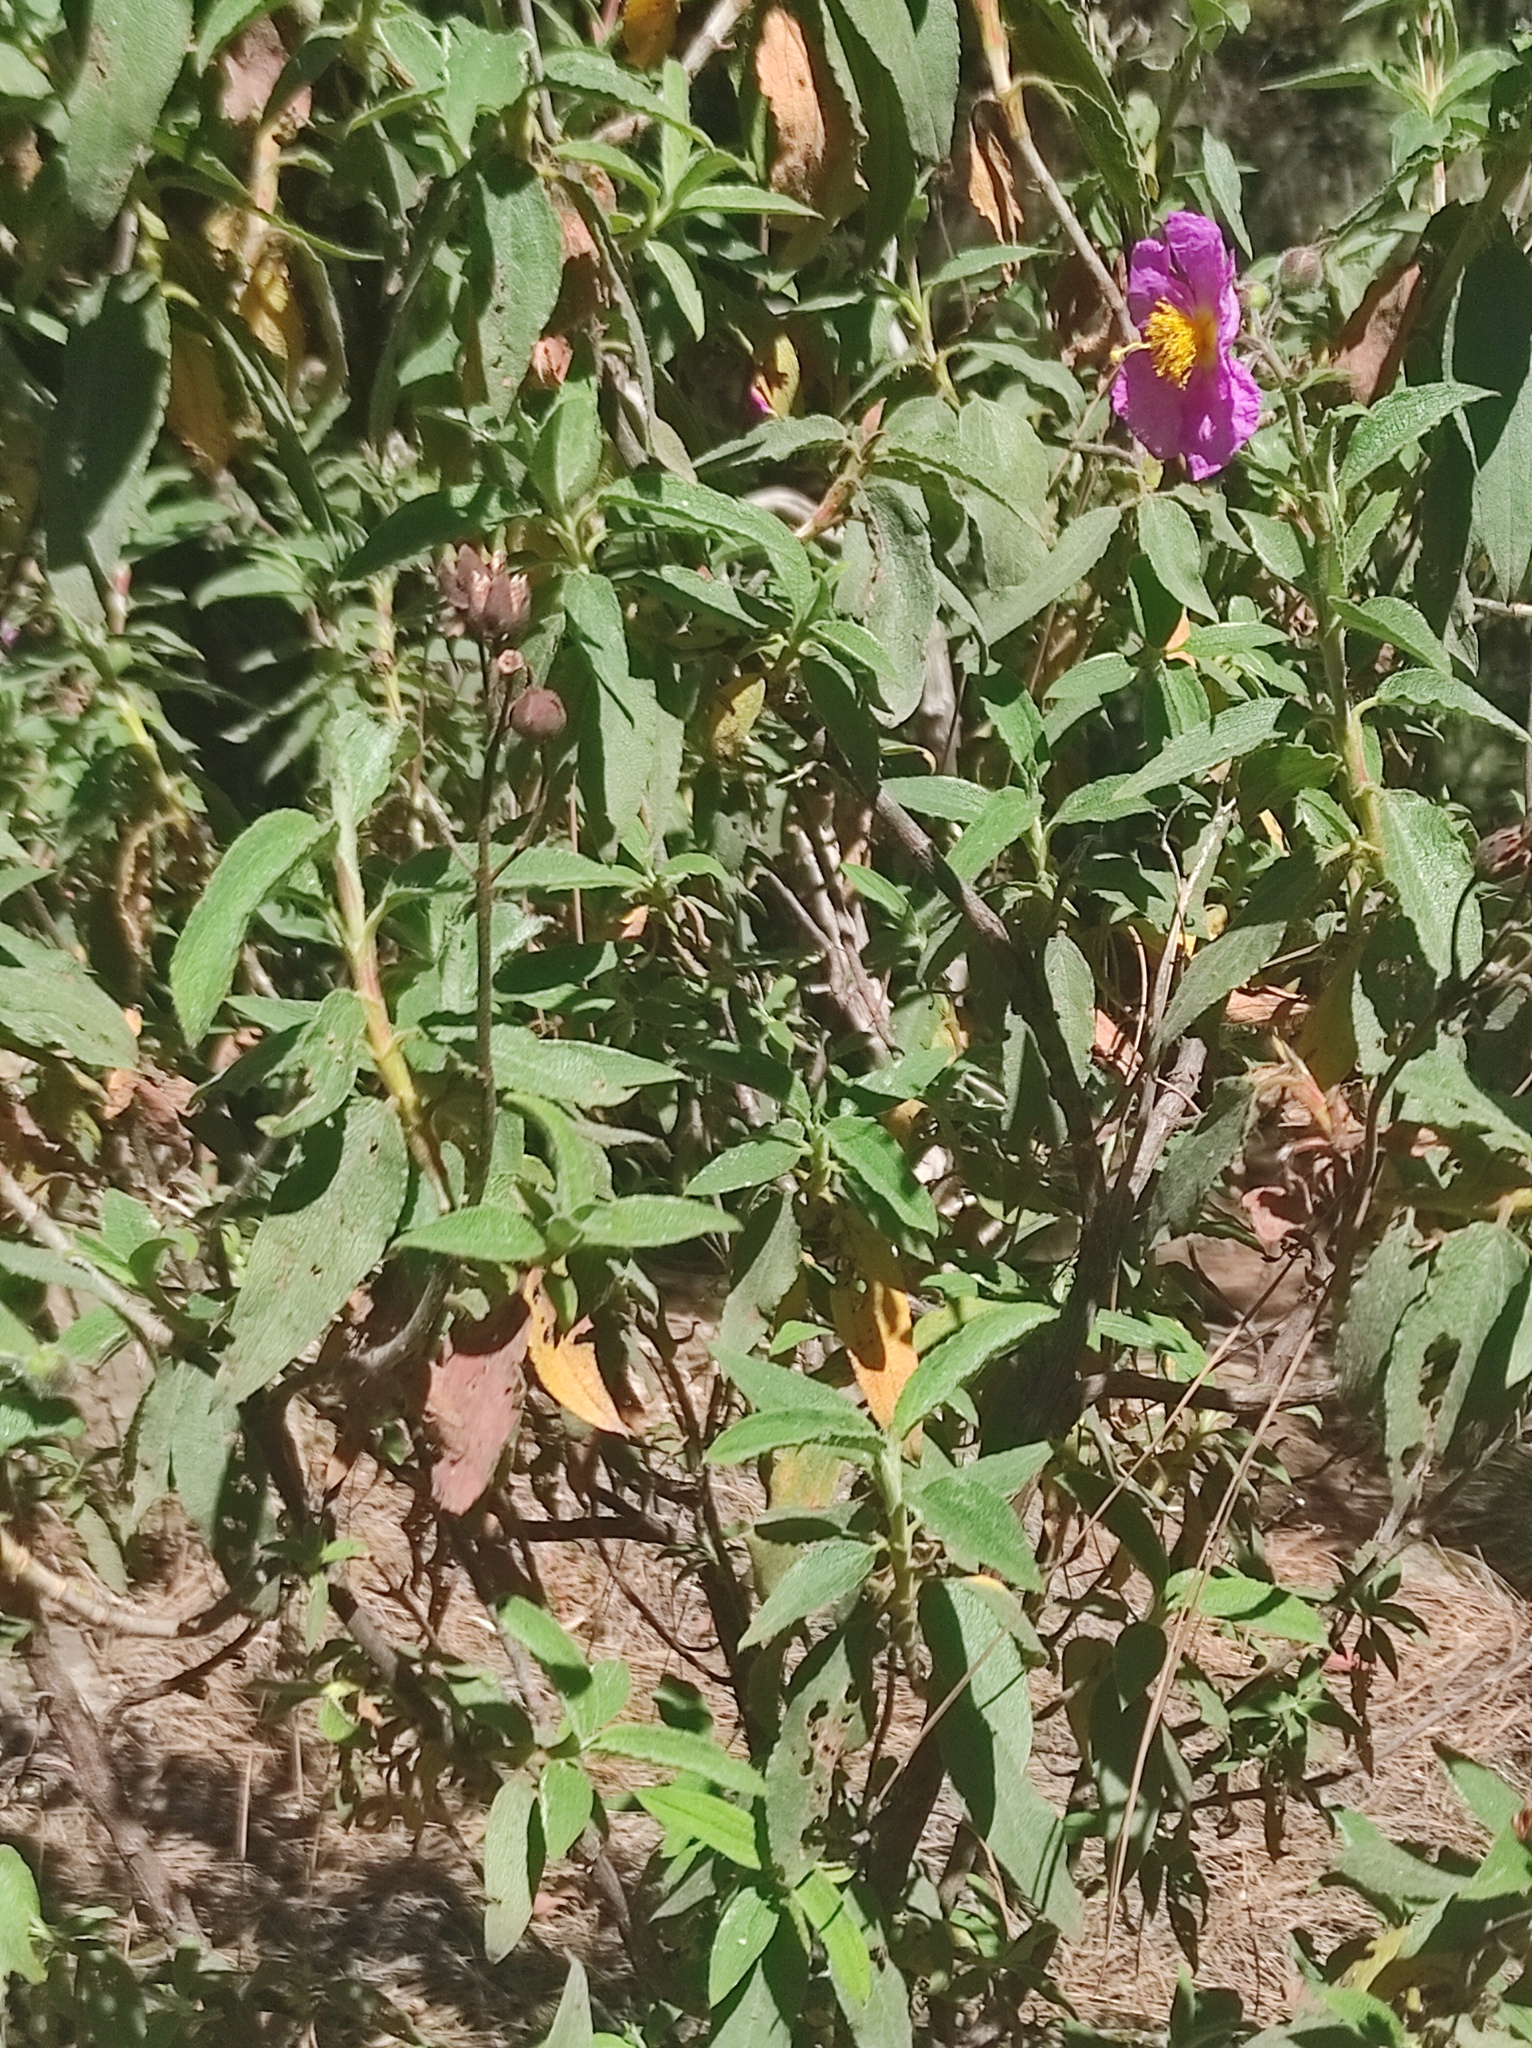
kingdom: Plantae
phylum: Tracheophyta
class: Magnoliopsida
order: Malvales
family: Cistaceae
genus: Cistus
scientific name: Cistus symphytifolius
